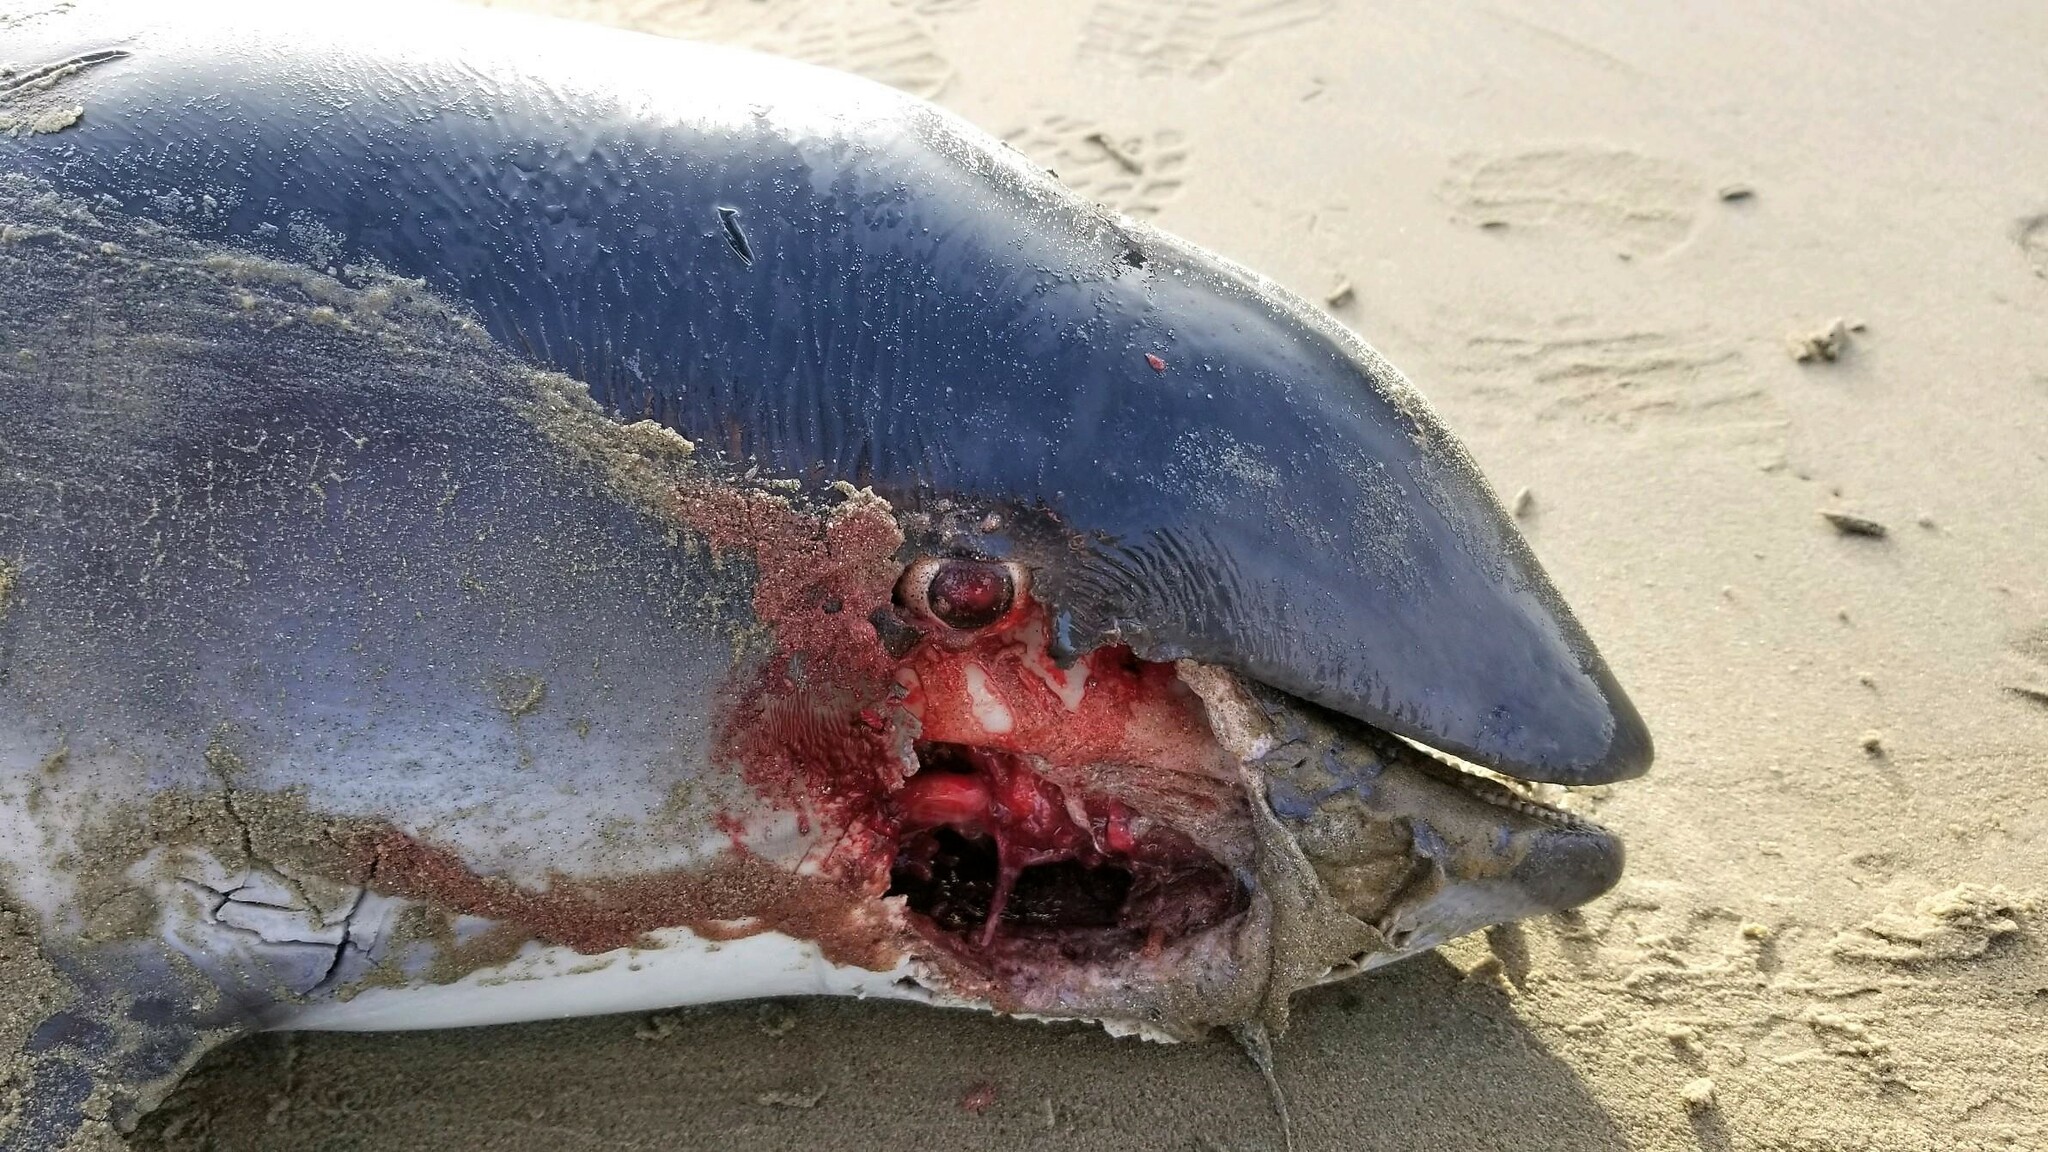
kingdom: Animalia
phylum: Chordata
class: Mammalia
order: Cetacea
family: Phocoenidae
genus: Phocoena
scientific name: Phocoena phocoena
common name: Harbor porpoise
